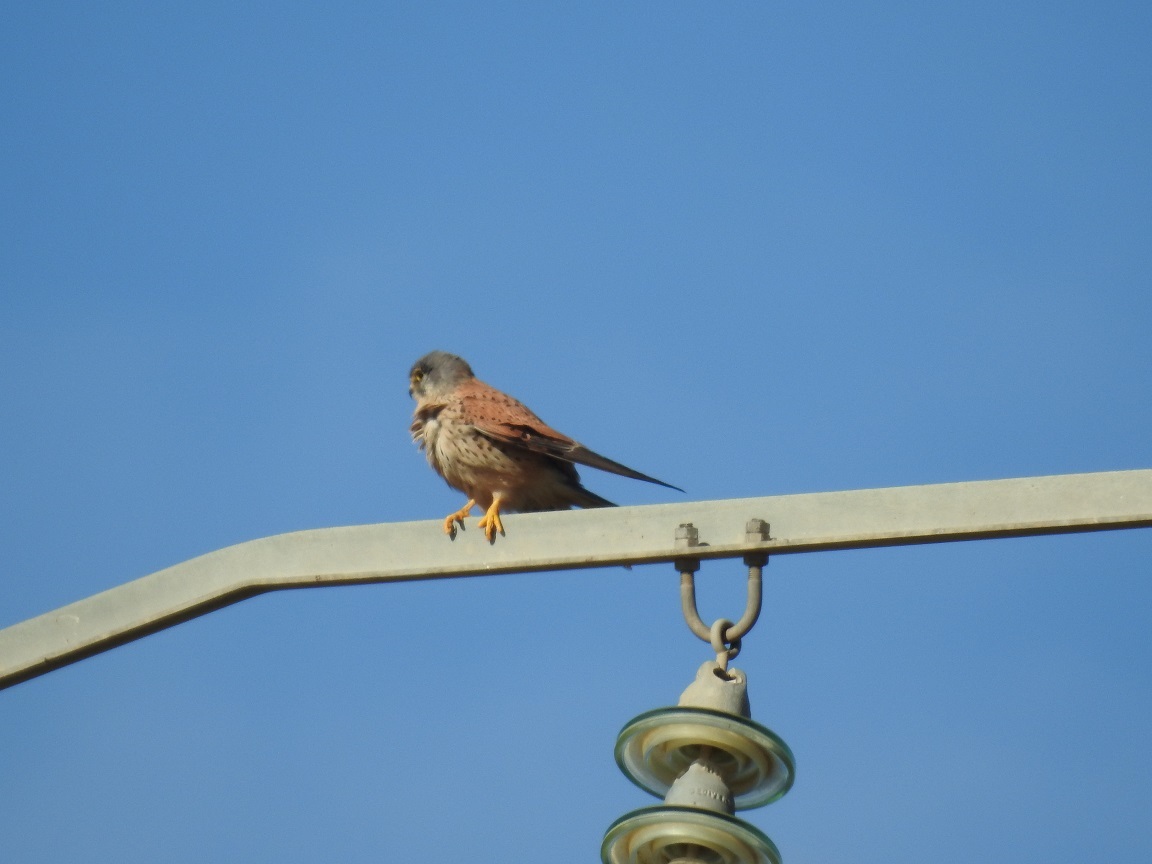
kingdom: Animalia
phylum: Chordata
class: Aves
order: Falconiformes
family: Falconidae
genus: Falco
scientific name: Falco tinnunculus
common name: Common kestrel
